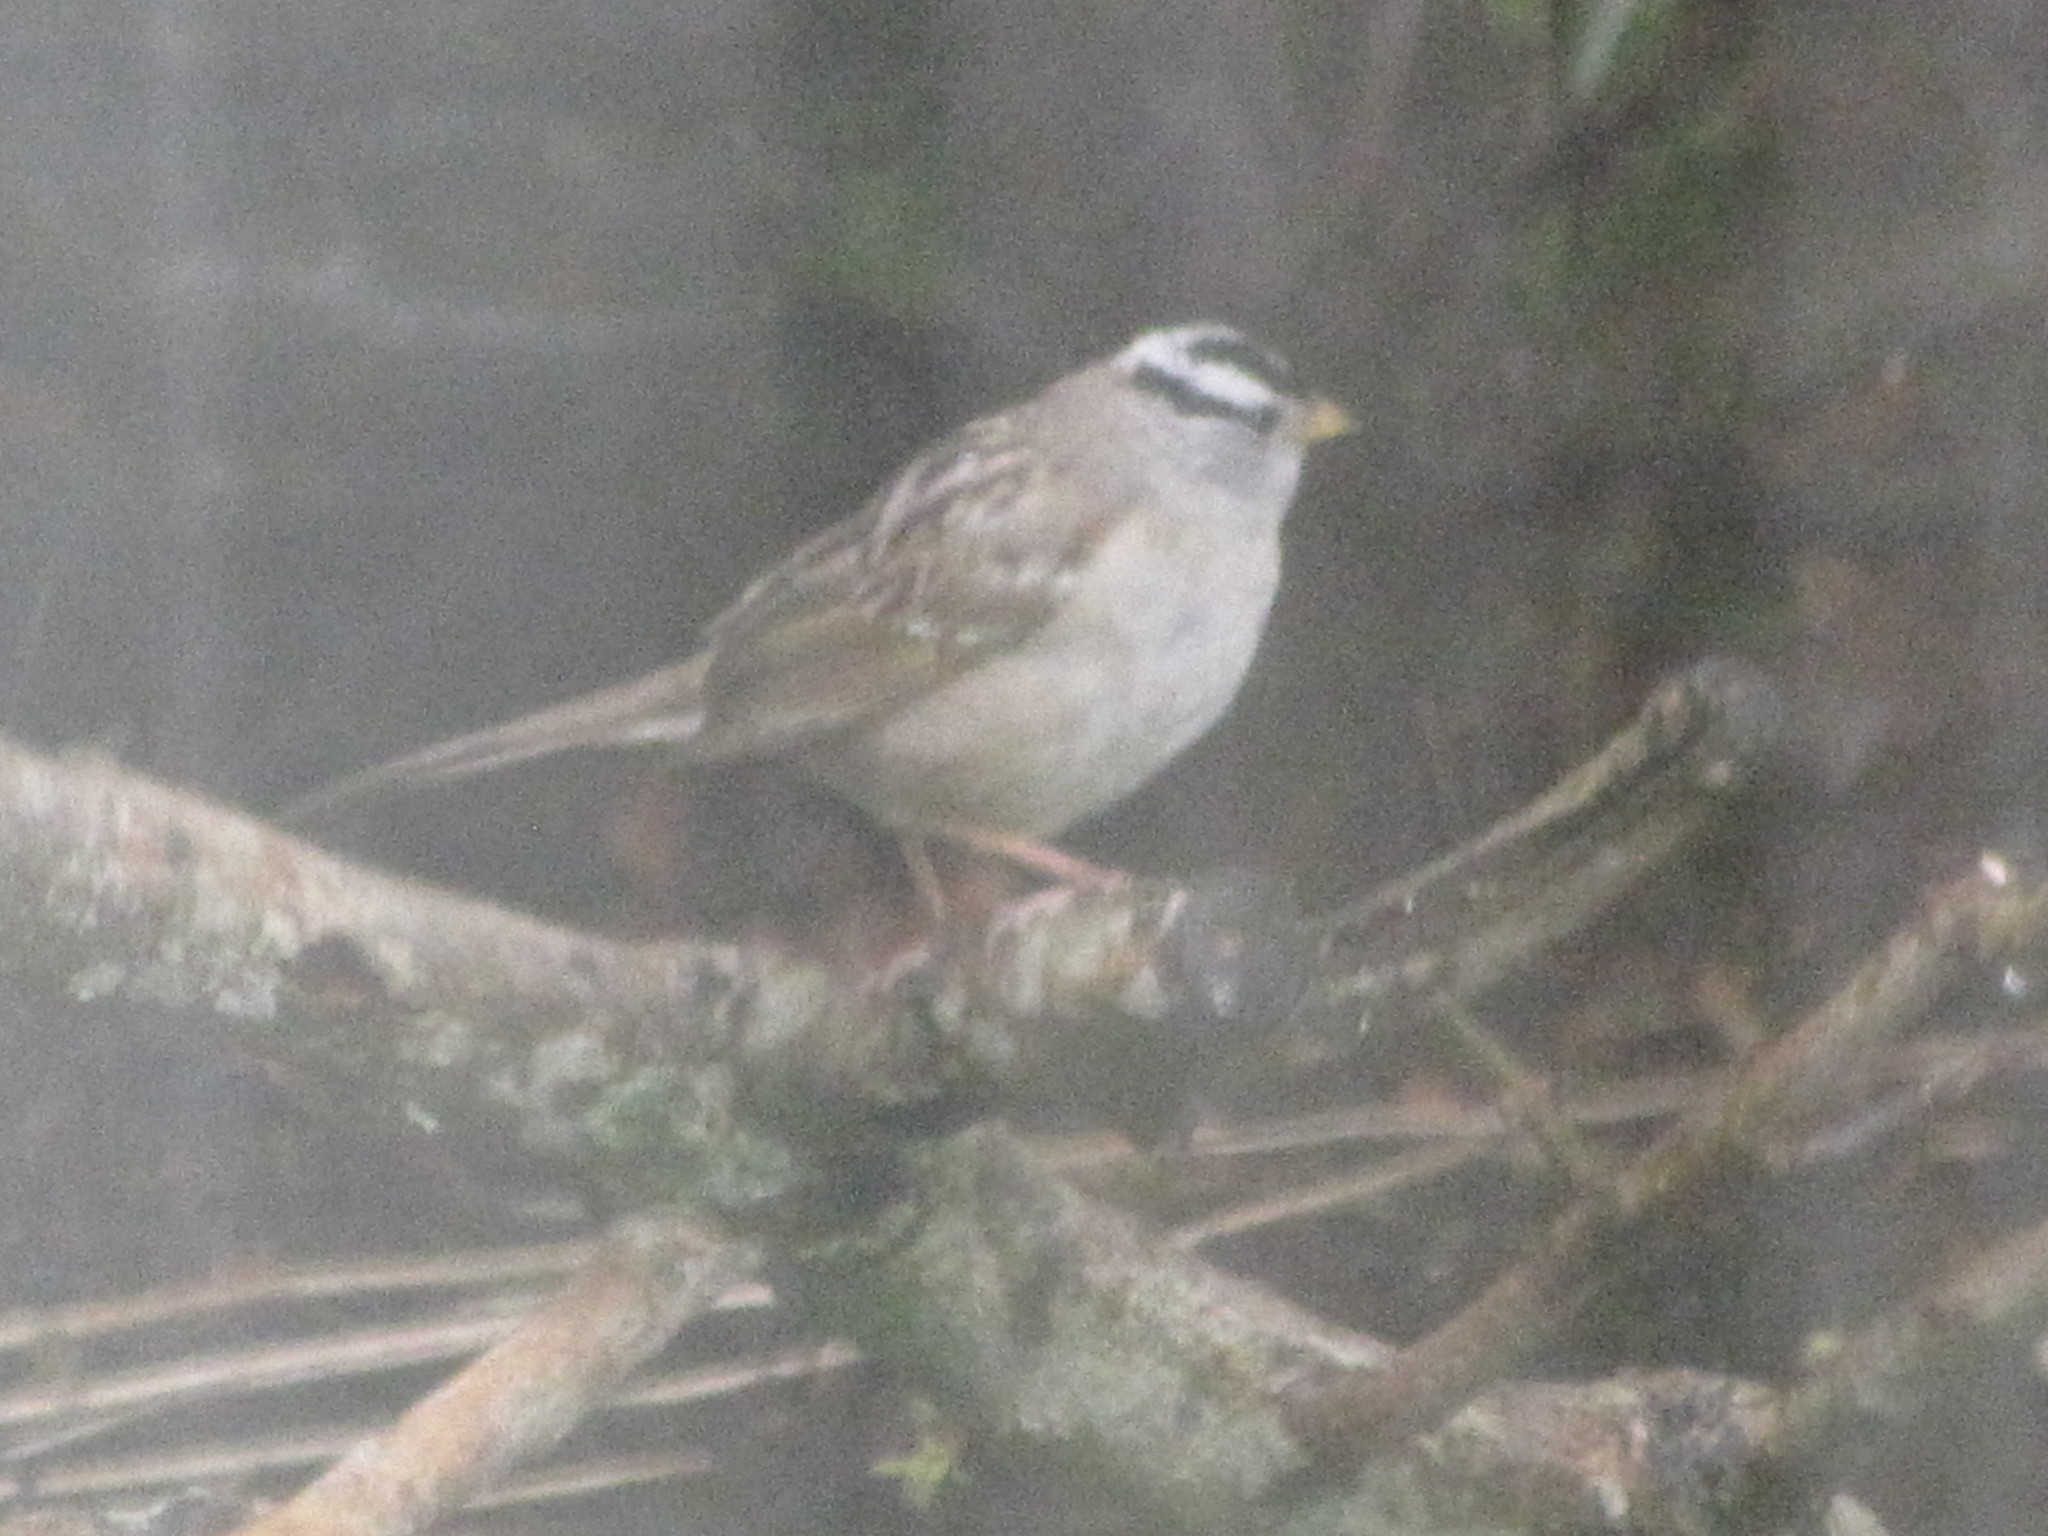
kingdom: Animalia
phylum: Chordata
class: Aves
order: Passeriformes
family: Passerellidae
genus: Zonotrichia
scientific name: Zonotrichia leucophrys
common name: White-crowned sparrow
